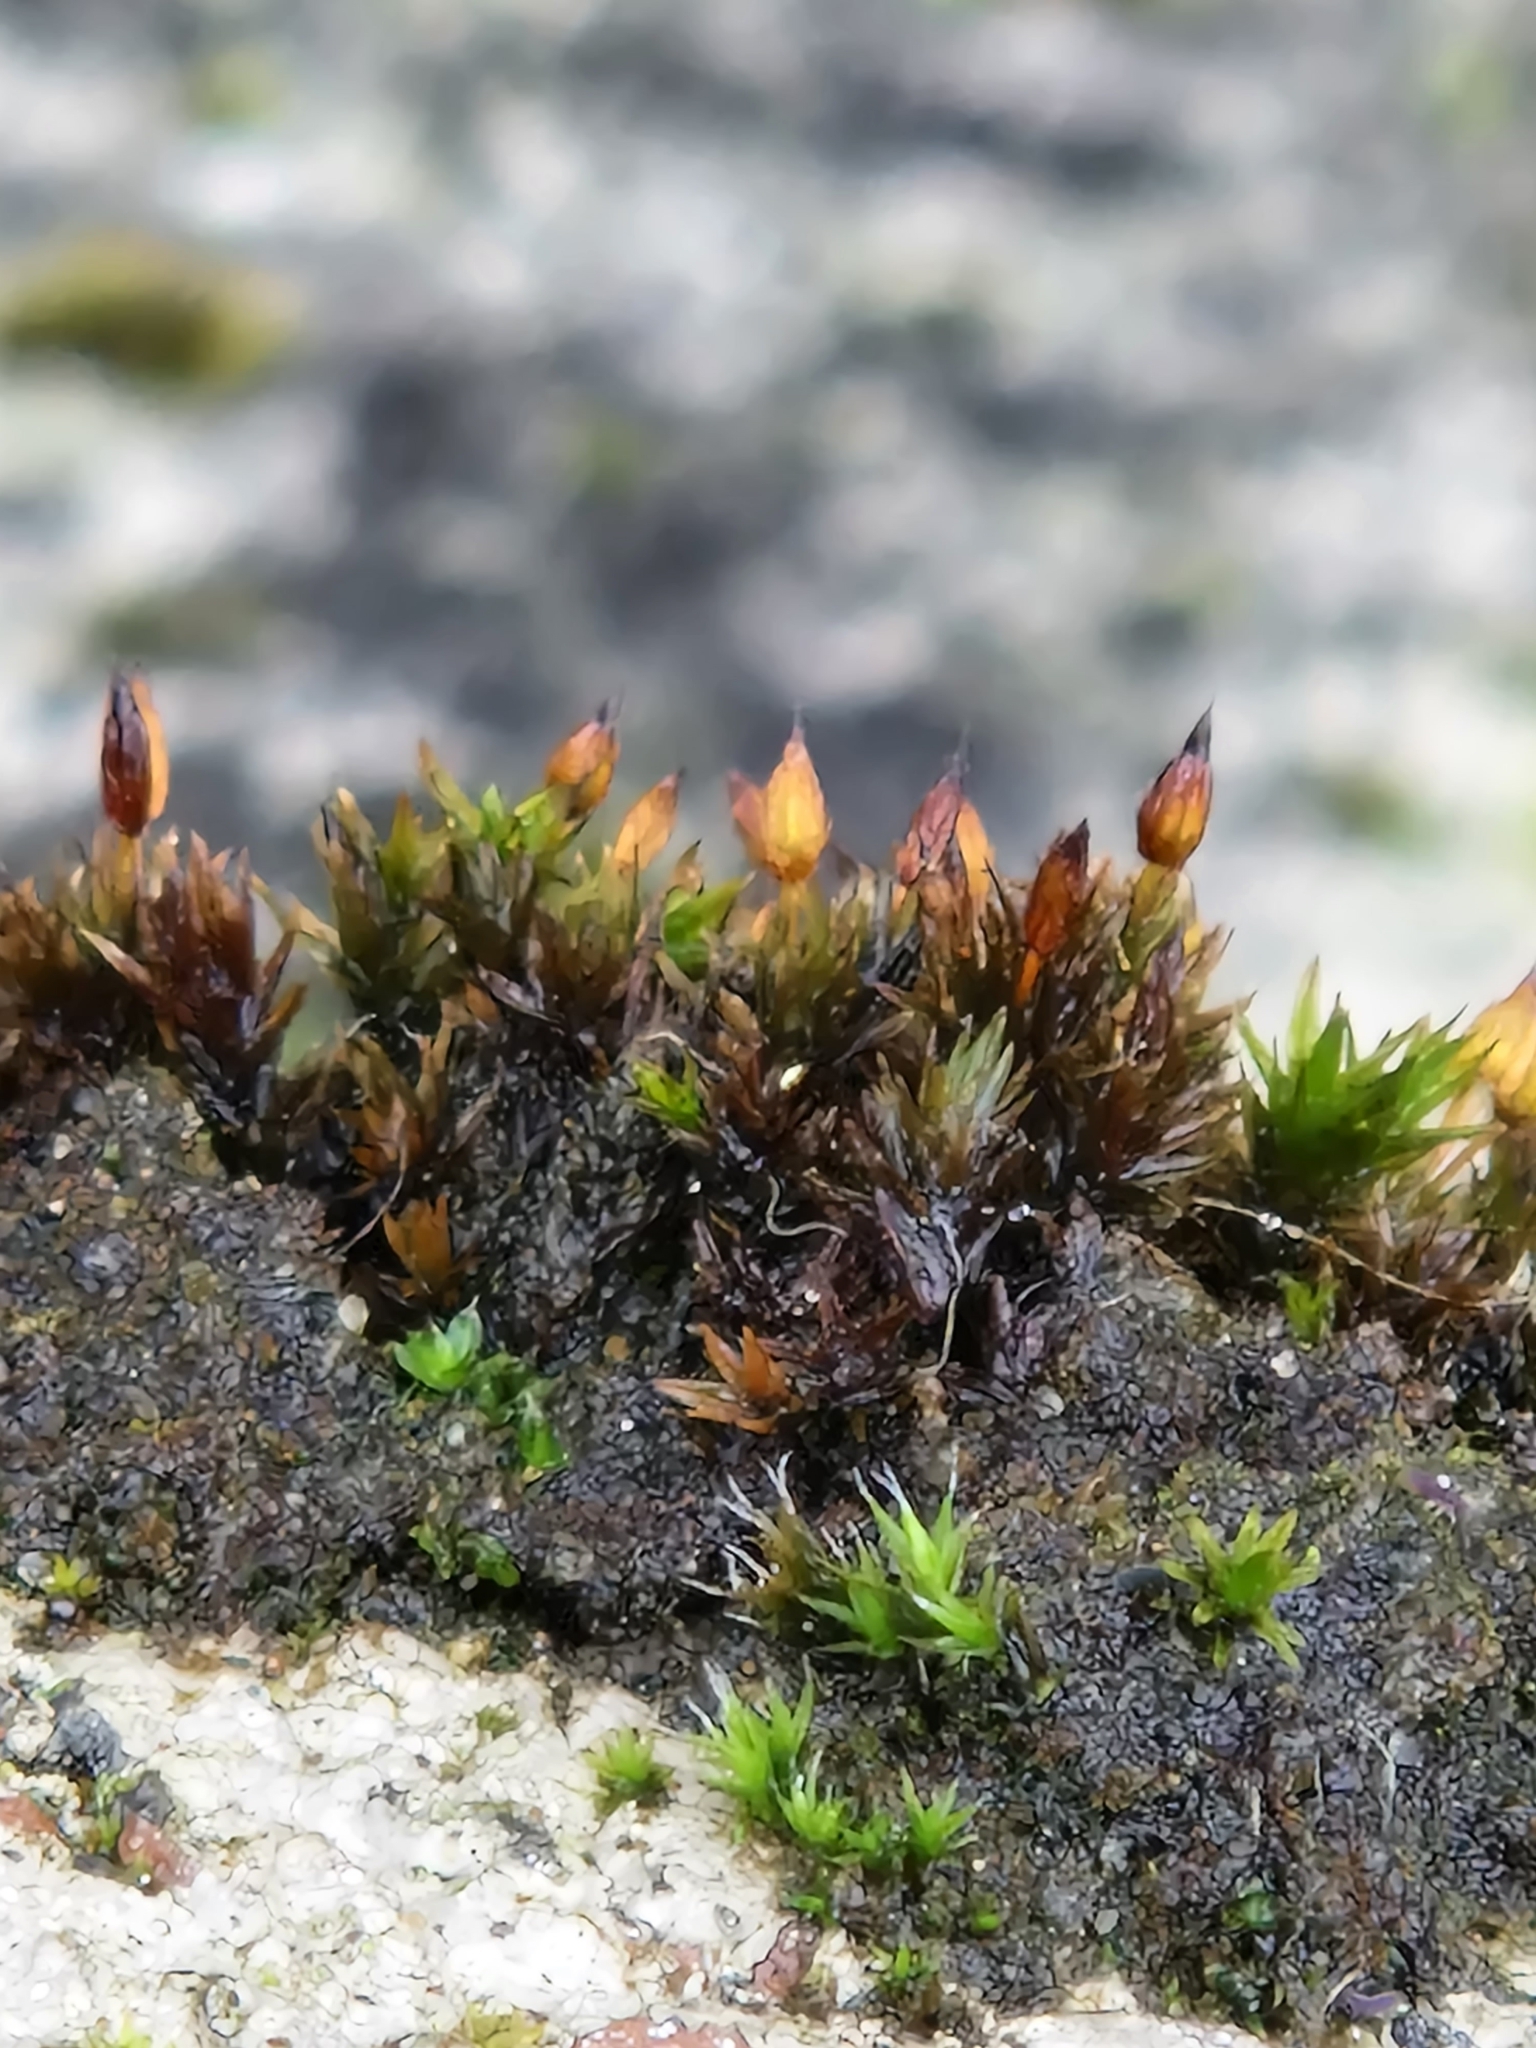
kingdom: Plantae
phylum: Bryophyta
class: Bryopsida
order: Orthotrichales
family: Orthotrichaceae
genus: Orthotrichum
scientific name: Orthotrichum anomalum
